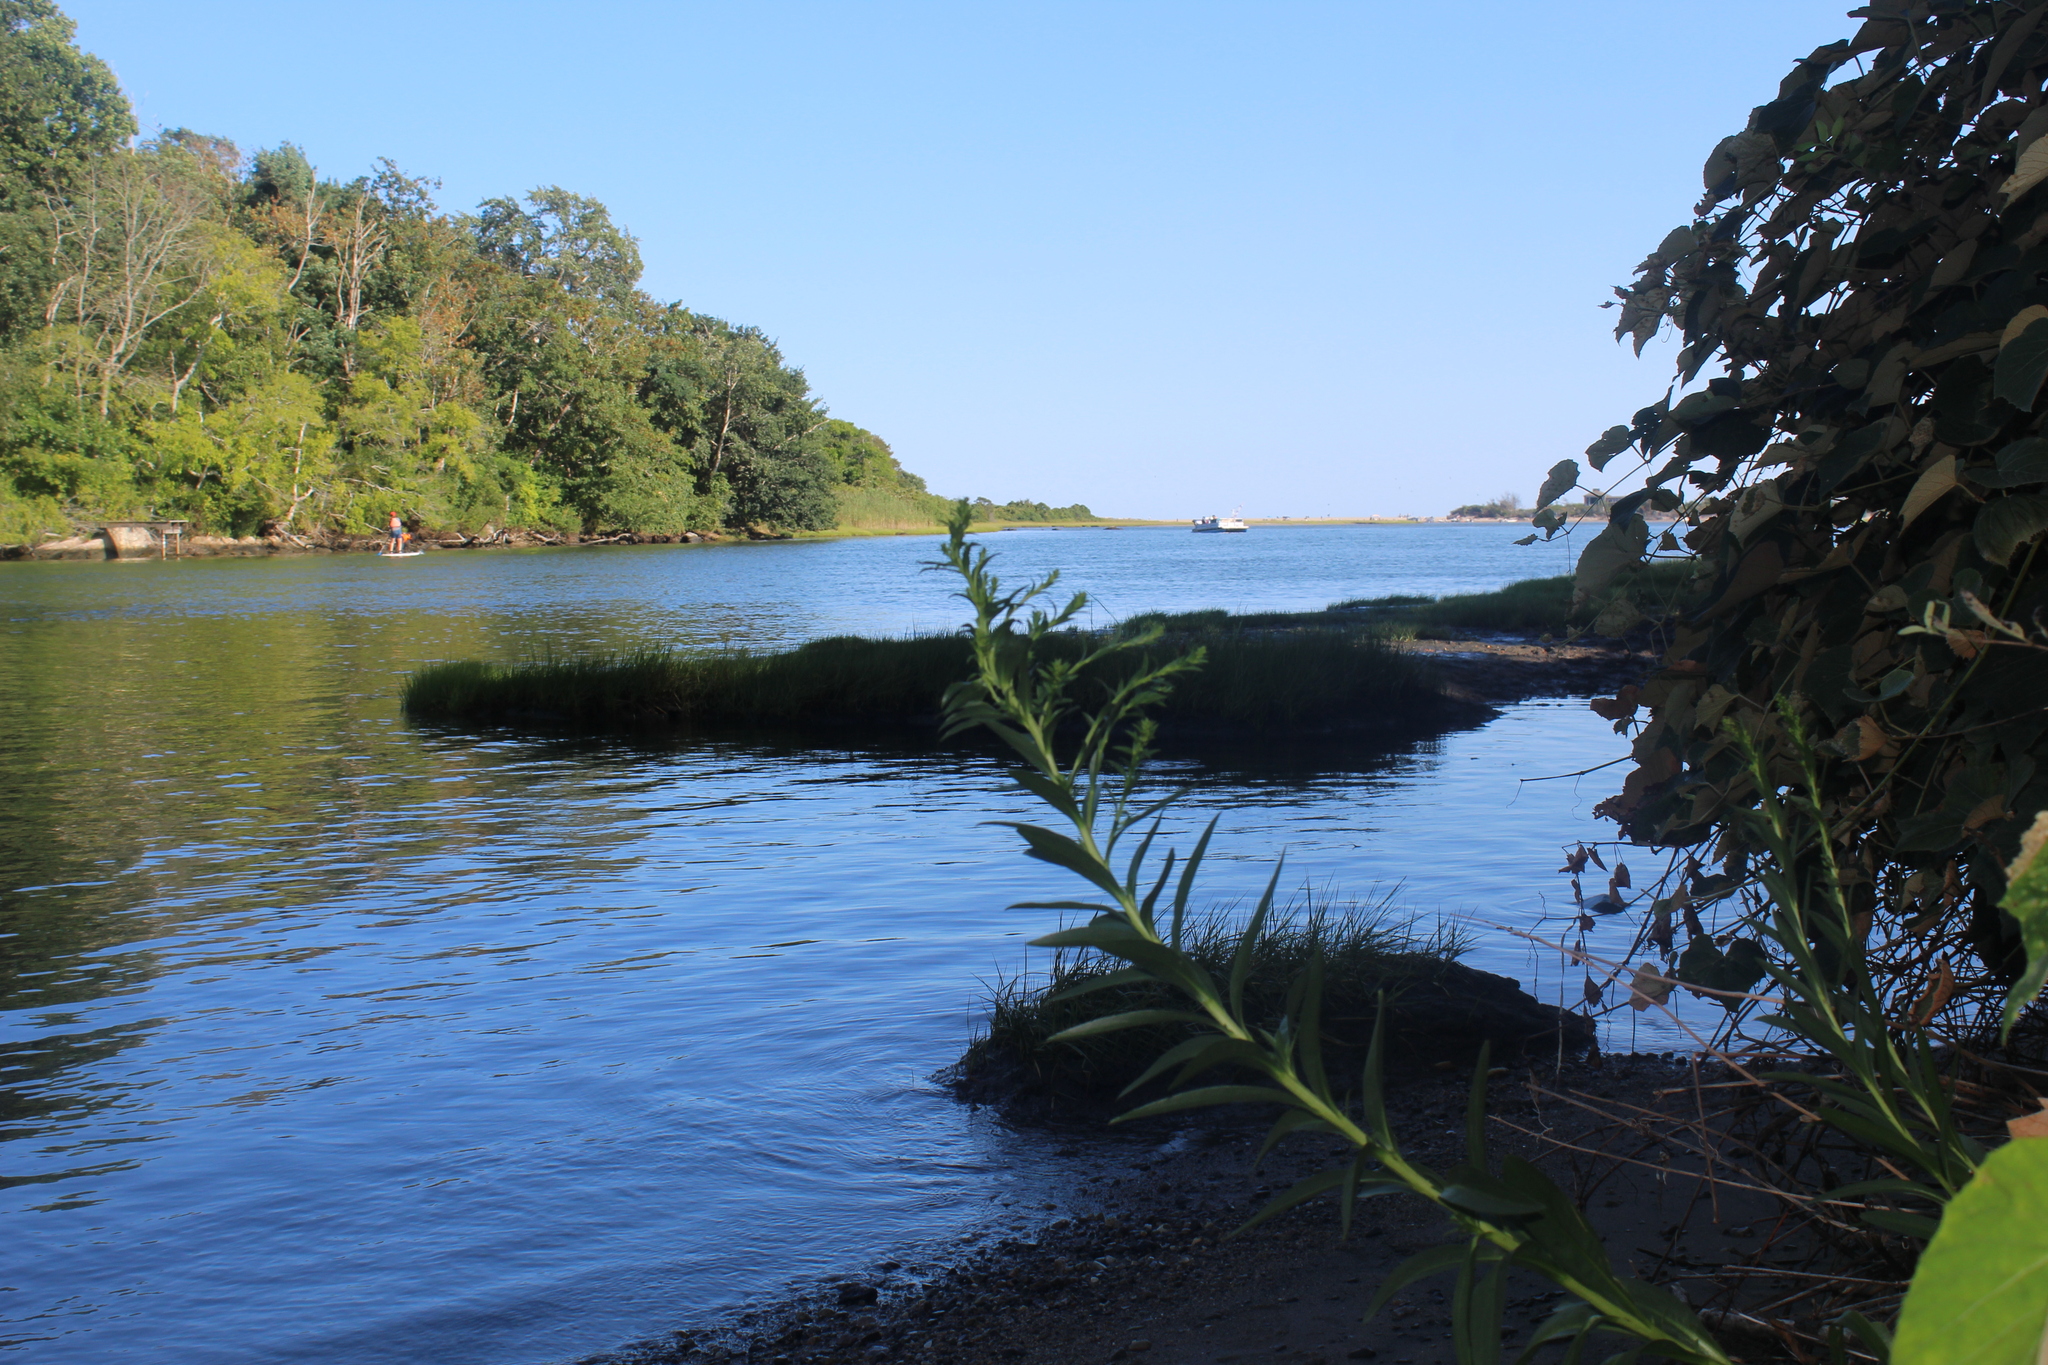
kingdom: Plantae
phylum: Tracheophyta
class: Magnoliopsida
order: Asterales
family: Asteraceae
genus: Solidago
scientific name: Solidago sempervirens
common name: Salt-marsh goldenrod
